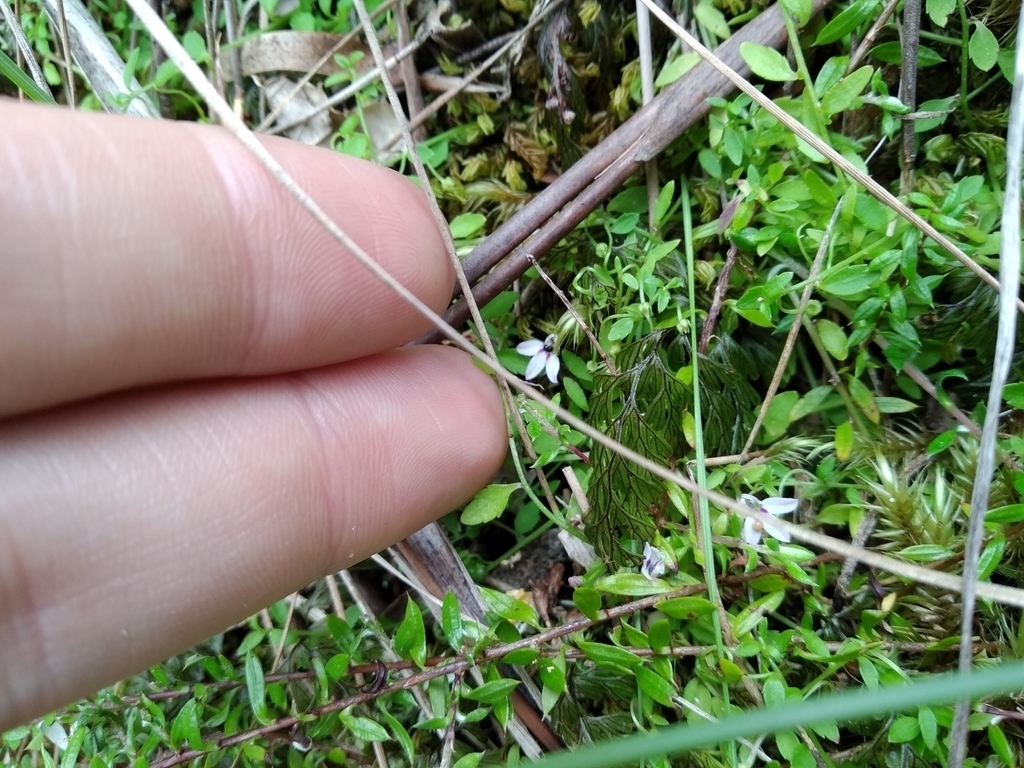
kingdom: Plantae
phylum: Tracheophyta
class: Polypodiopsida
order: Hymenophyllales
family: Hymenophyllaceae
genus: Hymenophyllum
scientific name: Hymenophyllum tunbrigense
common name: Tunbridge filmy fern
